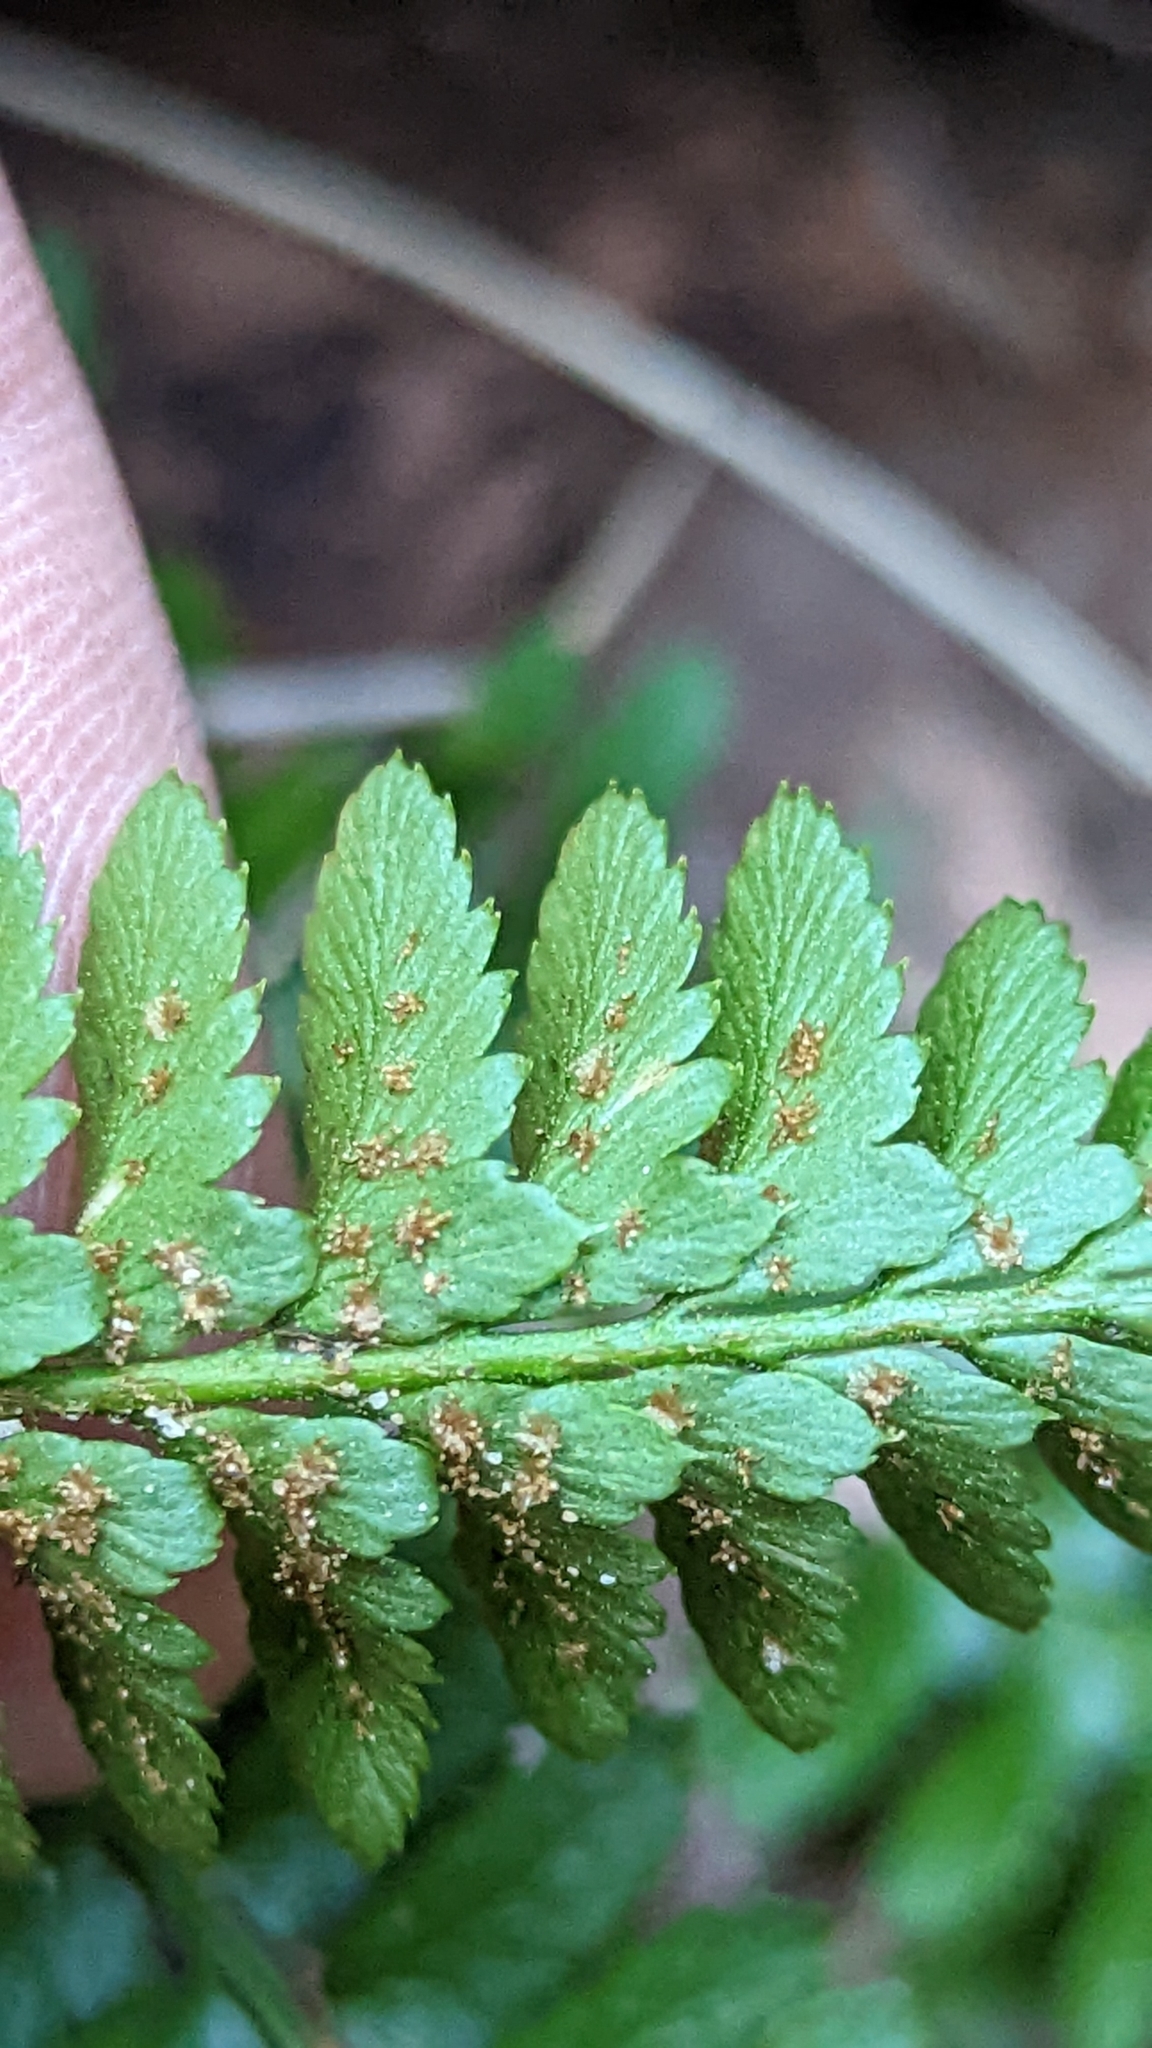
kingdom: Plantae
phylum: Tracheophyta
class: Polypodiopsida
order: Polypodiales
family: Dryopteridaceae
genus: Polystichum
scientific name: Polystichum scopulinum
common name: Eaton's shield fern
